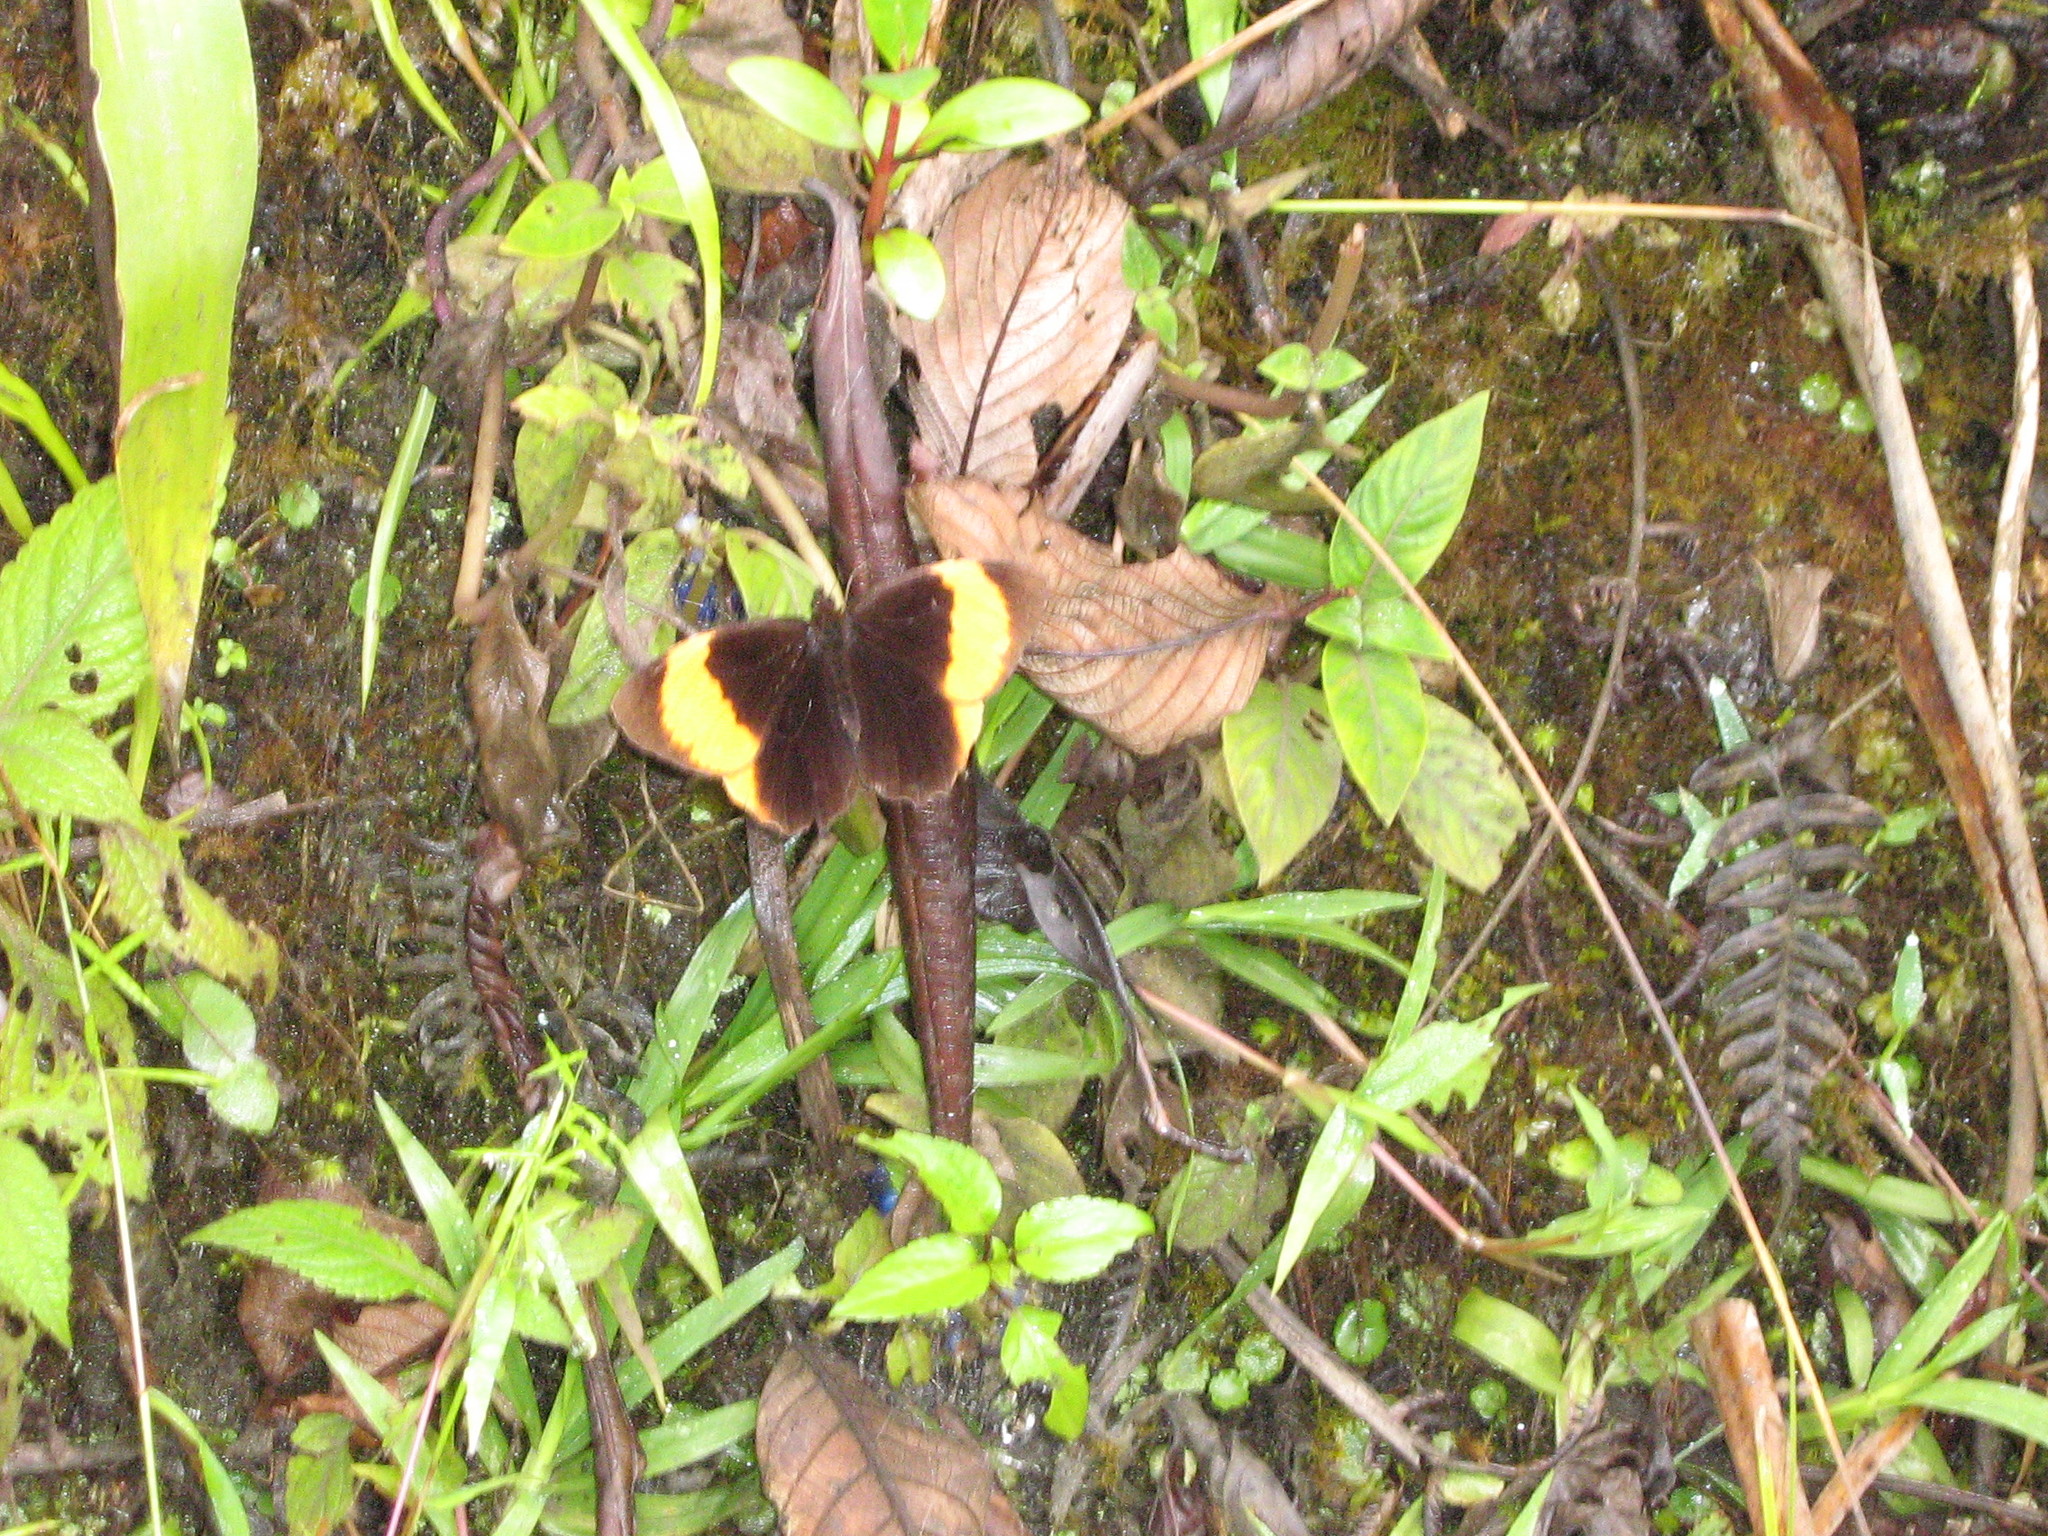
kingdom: Animalia
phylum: Arthropoda
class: Insecta
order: Lepidoptera
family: Nymphalidae
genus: Pedaliodes
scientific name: Pedaliodes praxithea
